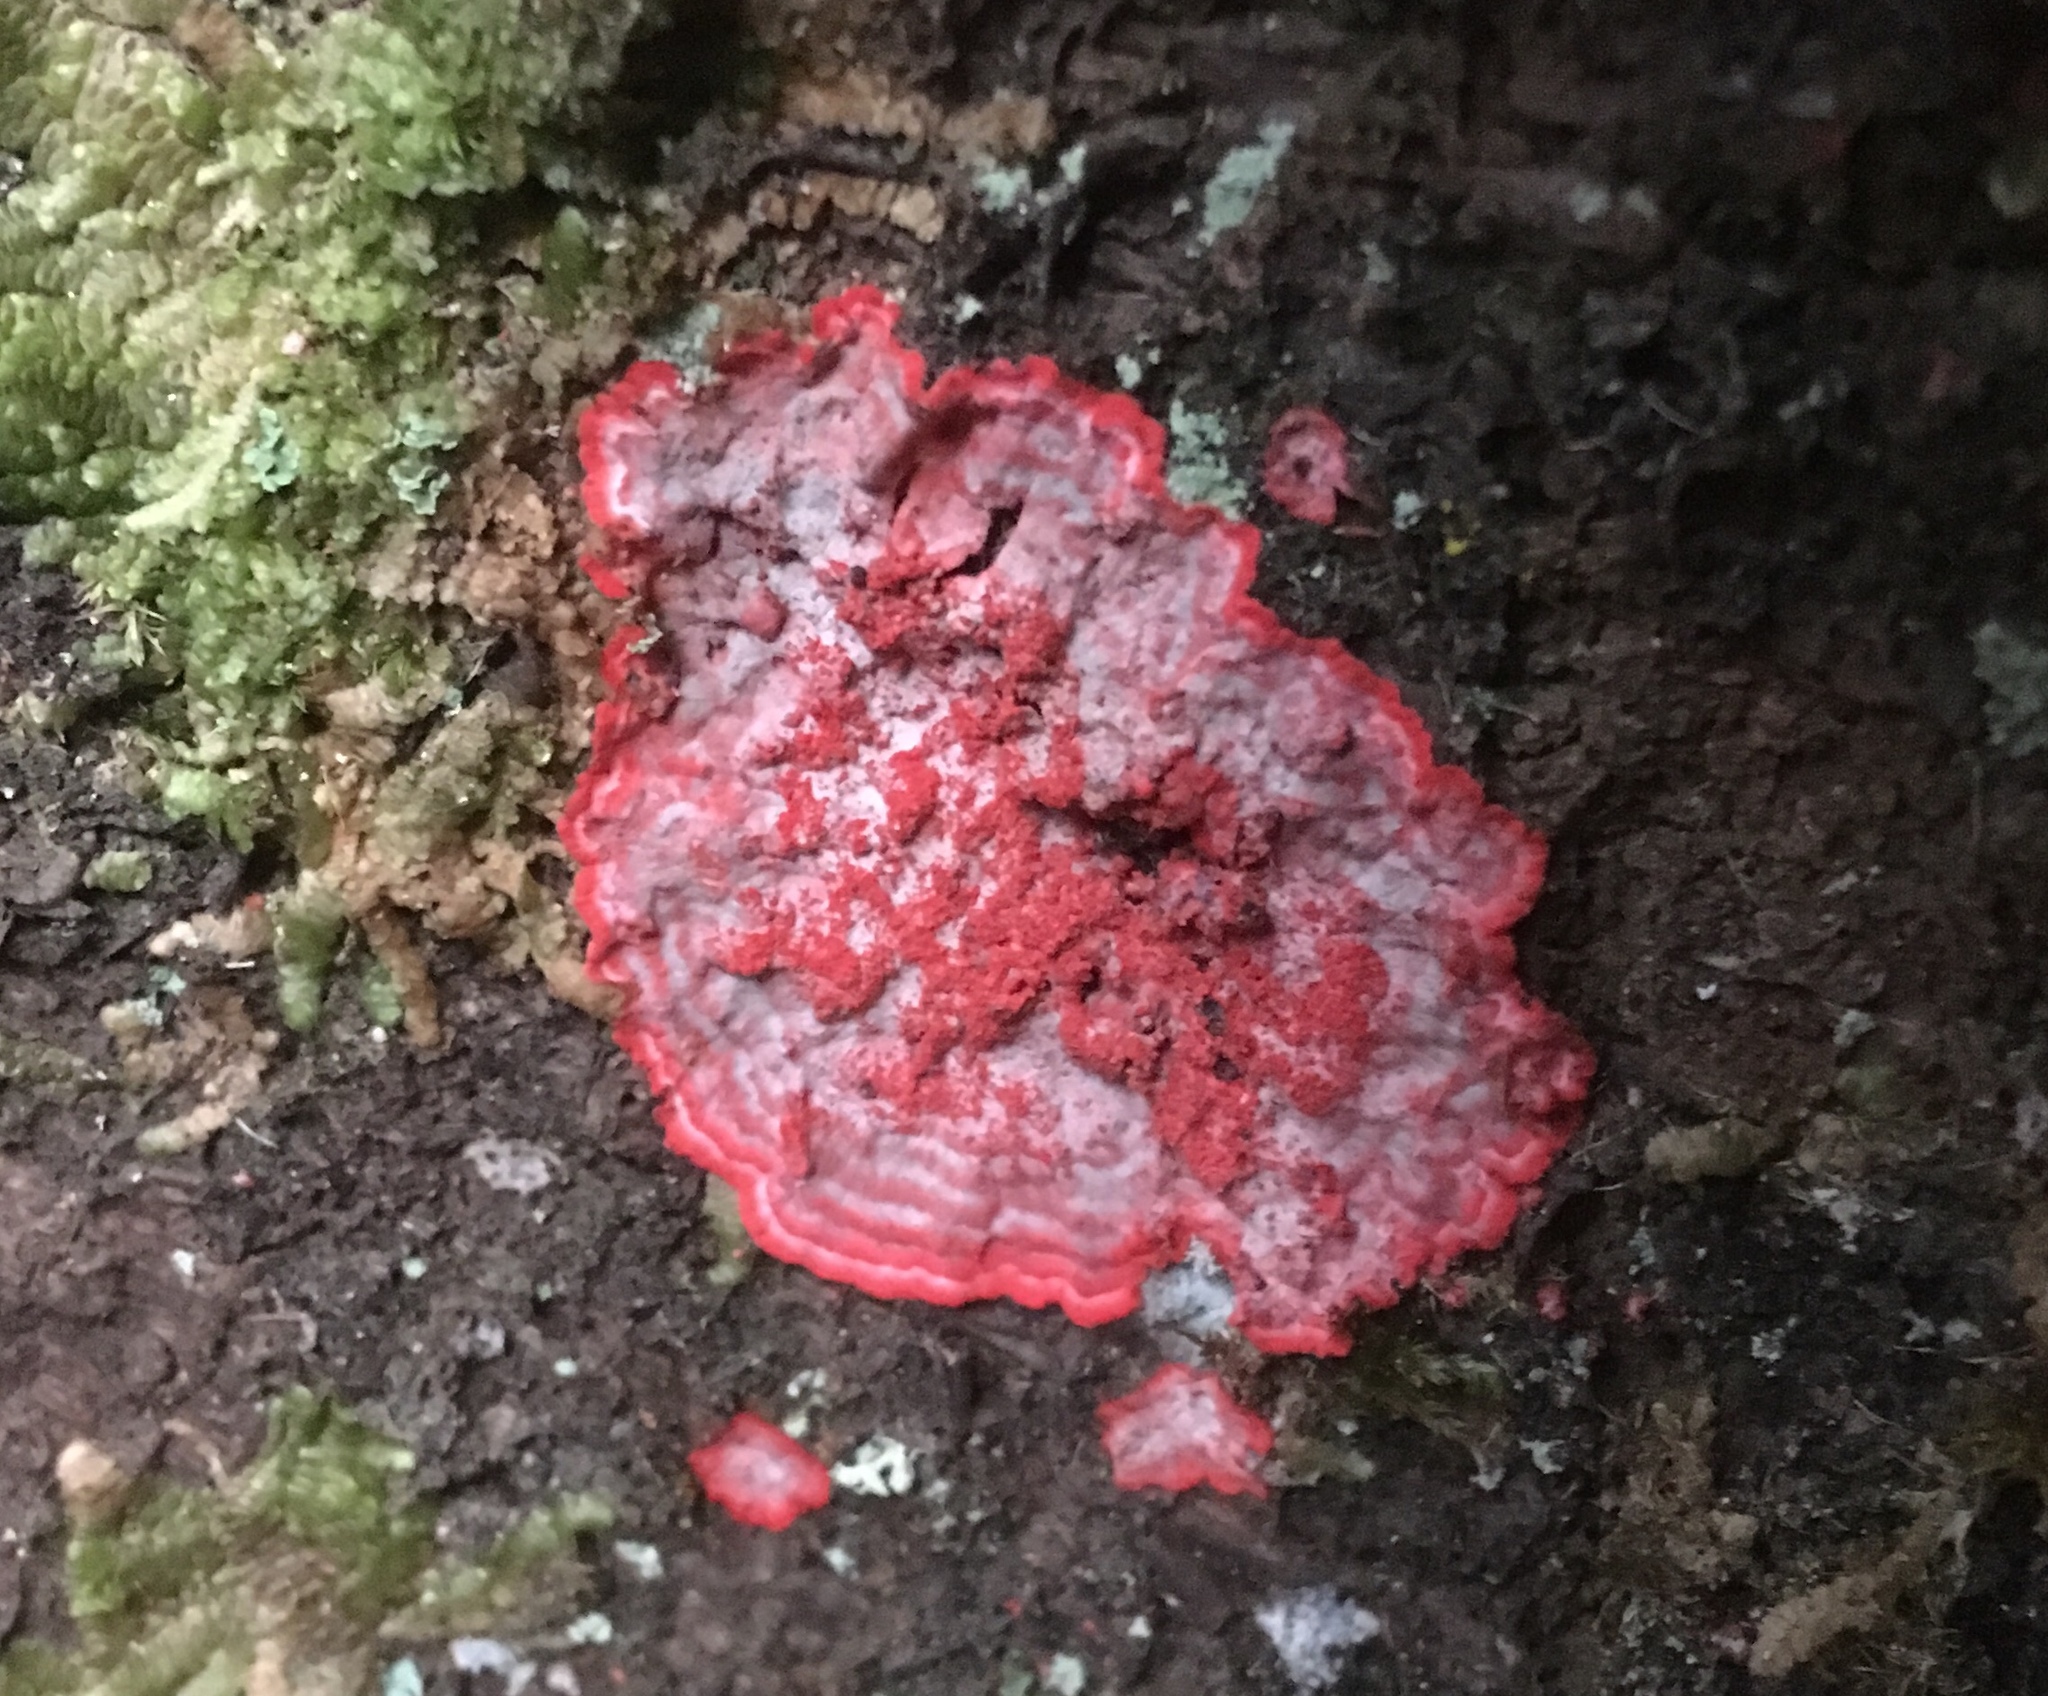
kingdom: Fungi
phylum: Ascomycota
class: Arthoniomycetes
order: Arthoniales
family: Arthoniaceae
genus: Herpothallon
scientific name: Herpothallon rubrocinctum
